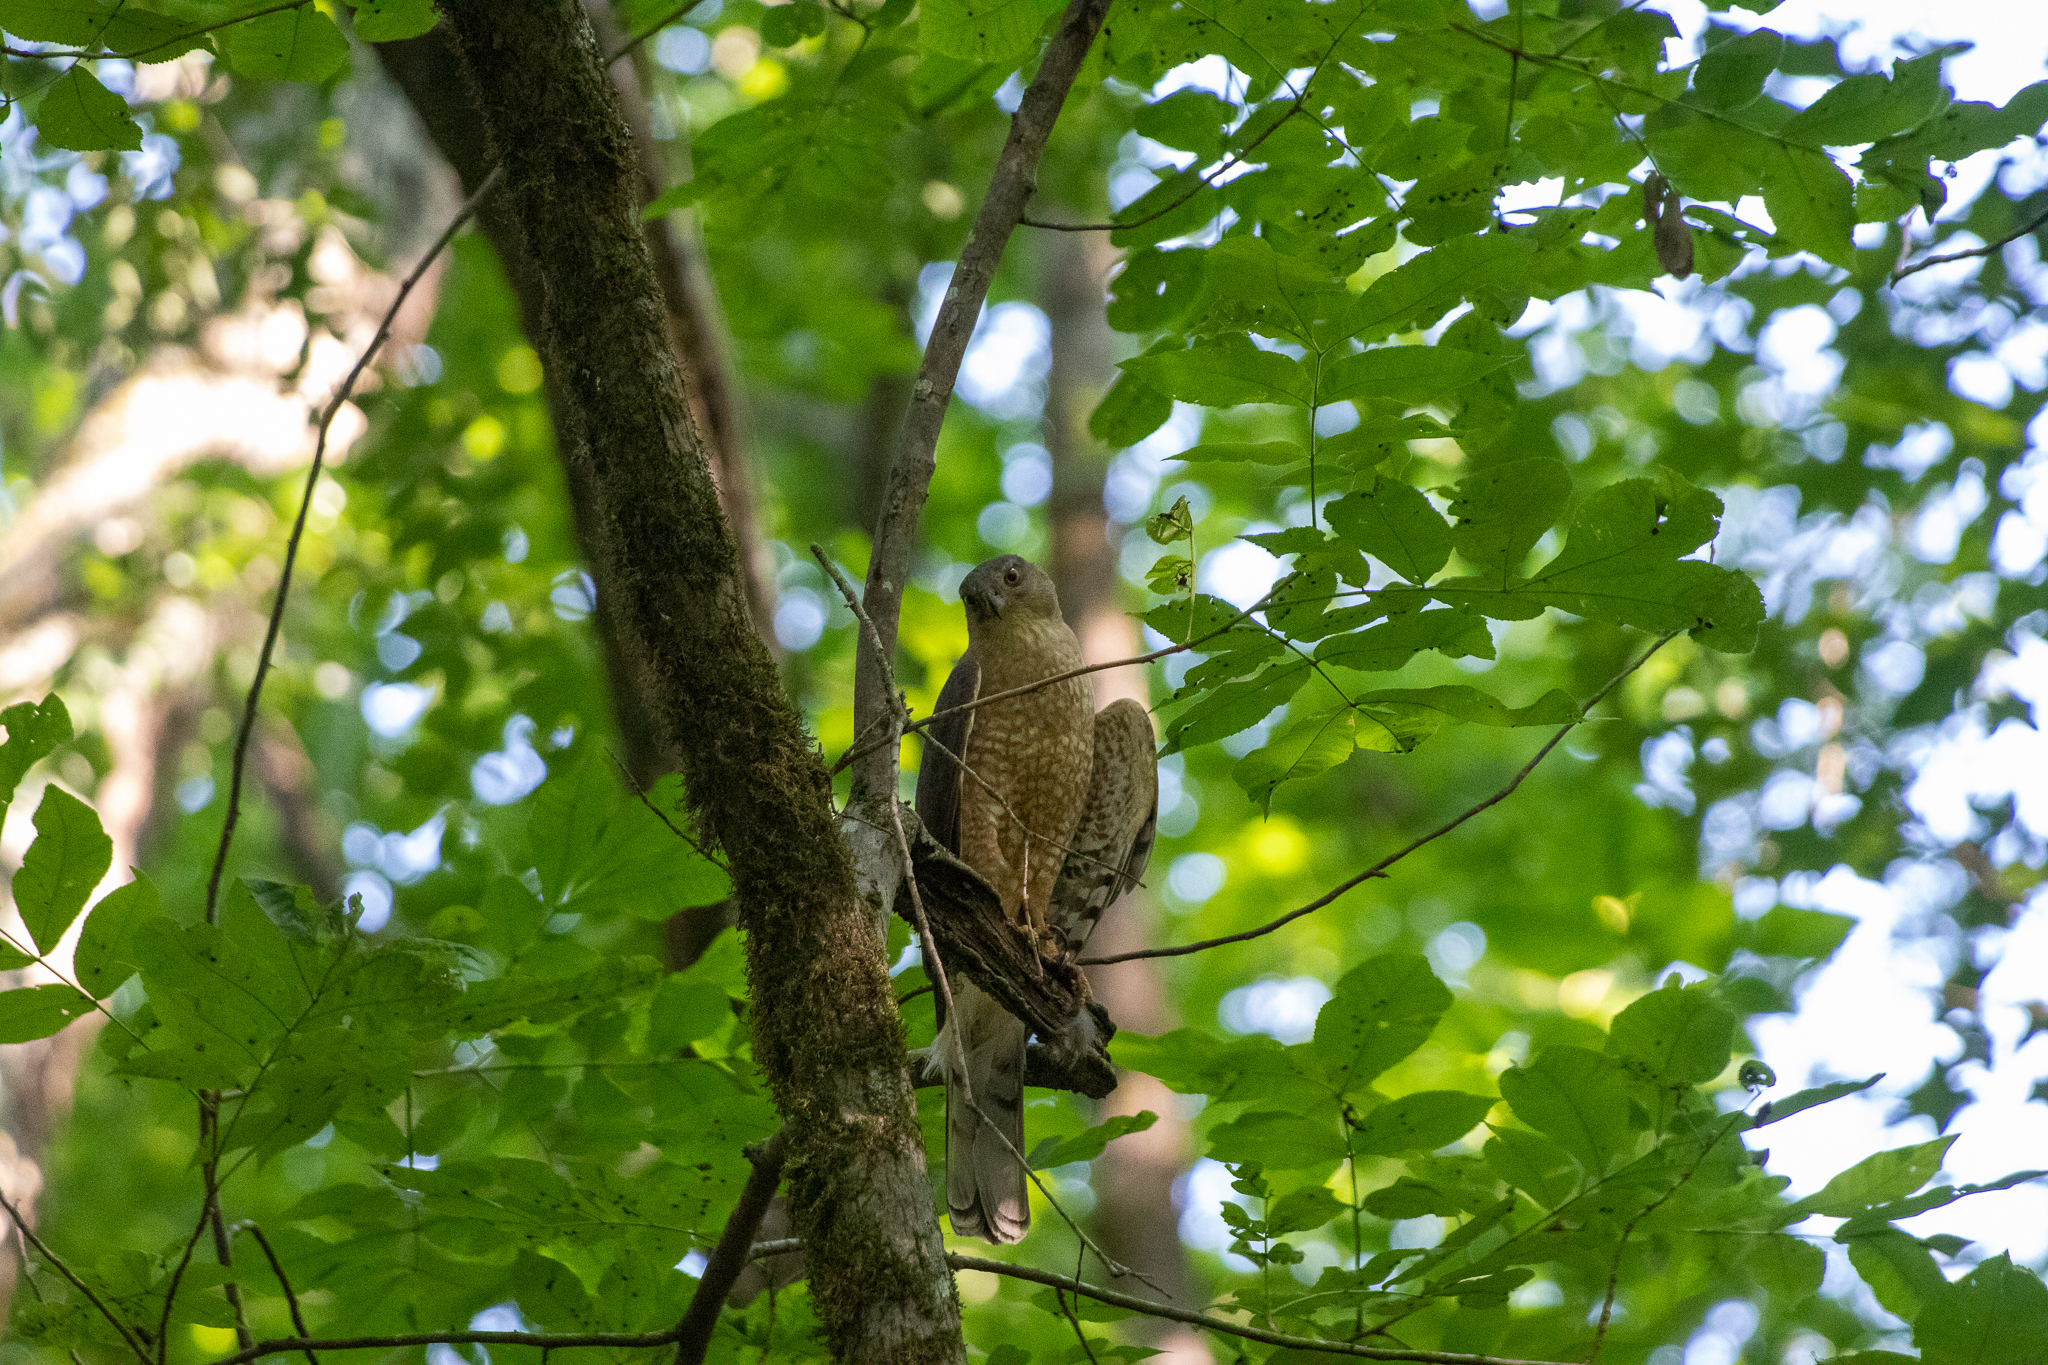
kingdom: Animalia
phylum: Chordata
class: Aves
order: Accipitriformes
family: Accipitridae
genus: Accipiter
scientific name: Accipiter cooperii
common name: Cooper's hawk
